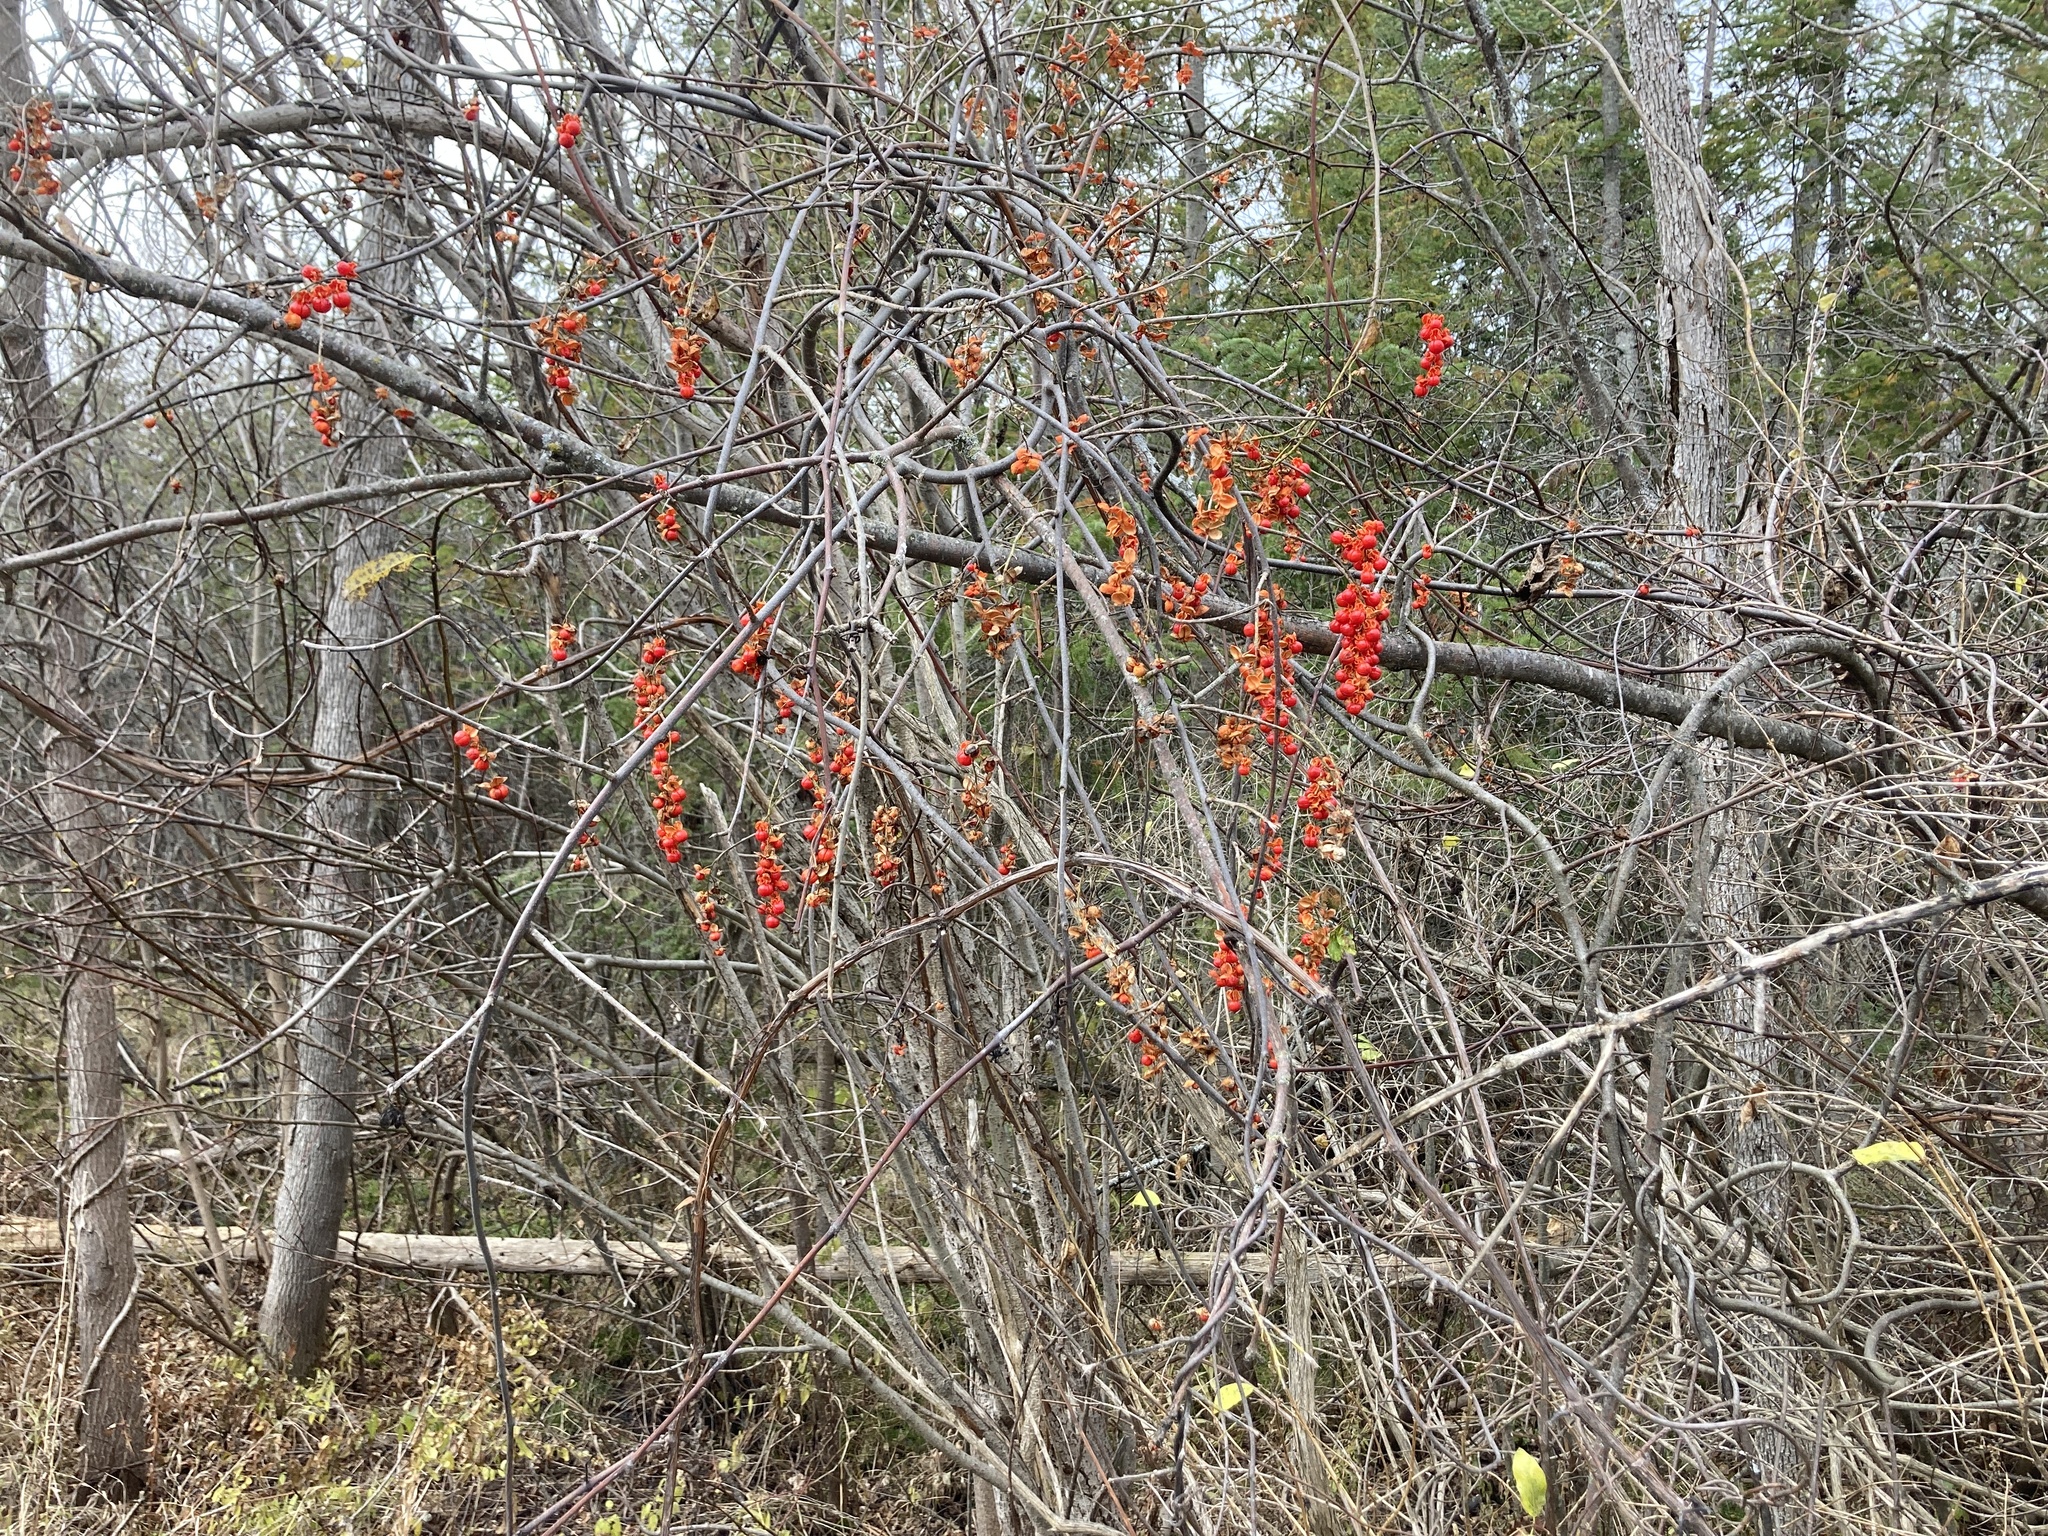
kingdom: Plantae
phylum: Tracheophyta
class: Magnoliopsida
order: Celastrales
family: Celastraceae
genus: Celastrus
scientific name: Celastrus scandens
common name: American bittersweet
